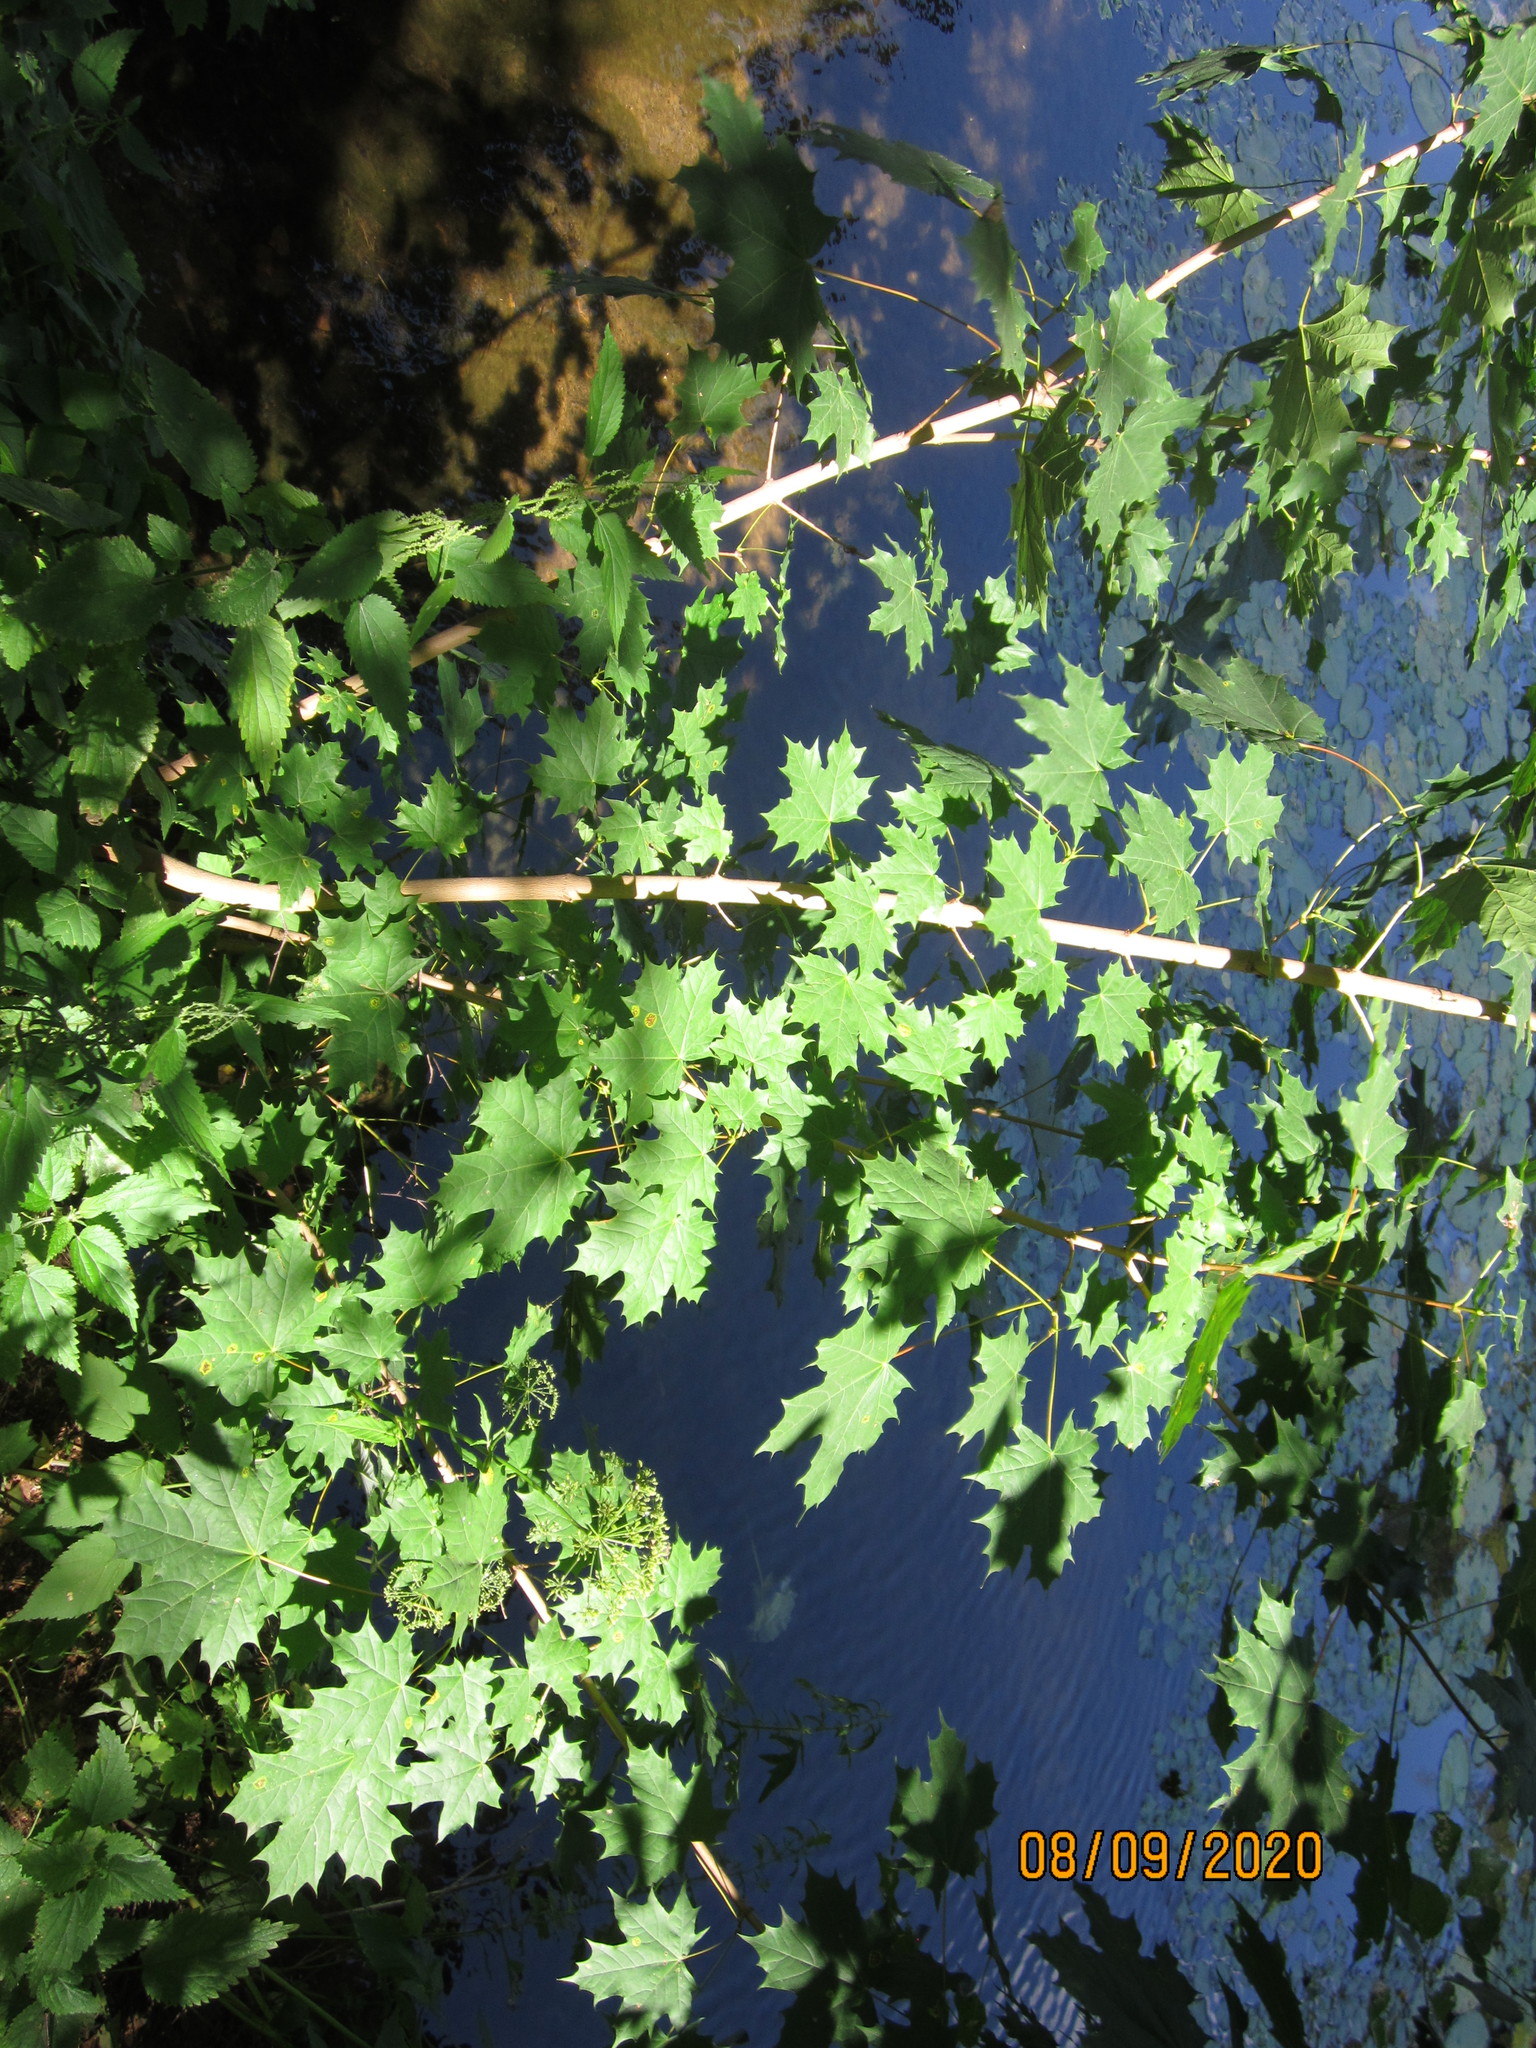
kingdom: Plantae
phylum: Tracheophyta
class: Magnoliopsida
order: Sapindales
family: Sapindaceae
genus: Acer
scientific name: Acer platanoides
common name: Norway maple
